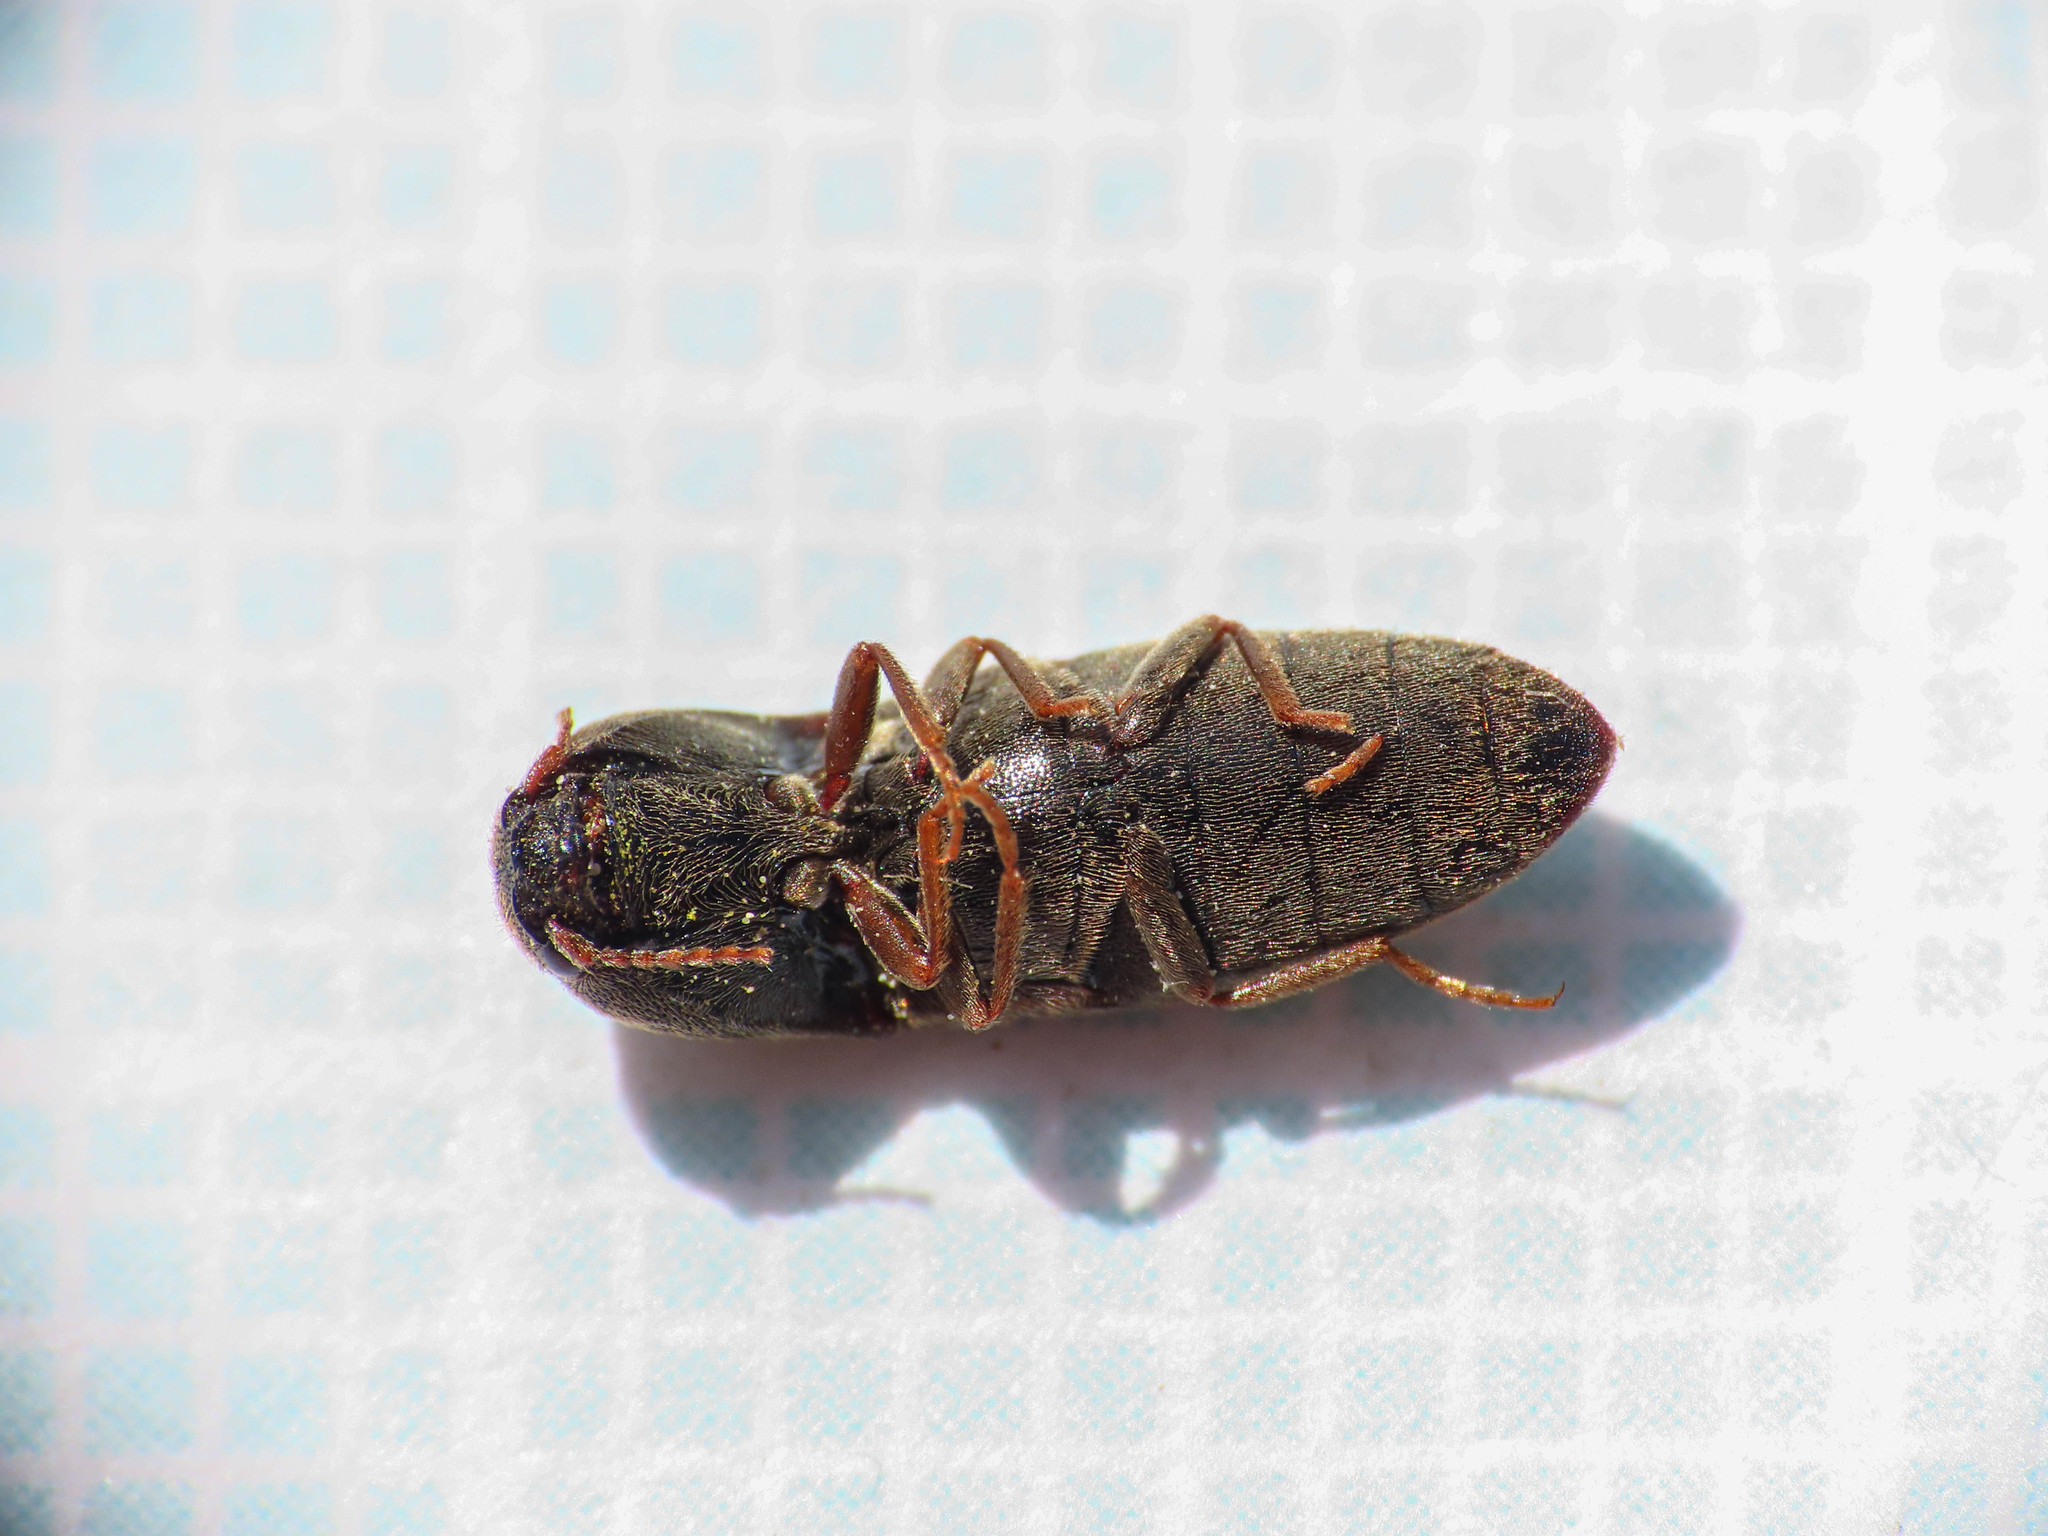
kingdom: Animalia
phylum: Arthropoda
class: Insecta
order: Coleoptera
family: Elateridae
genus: Agriotes
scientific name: Agriotes brevis
